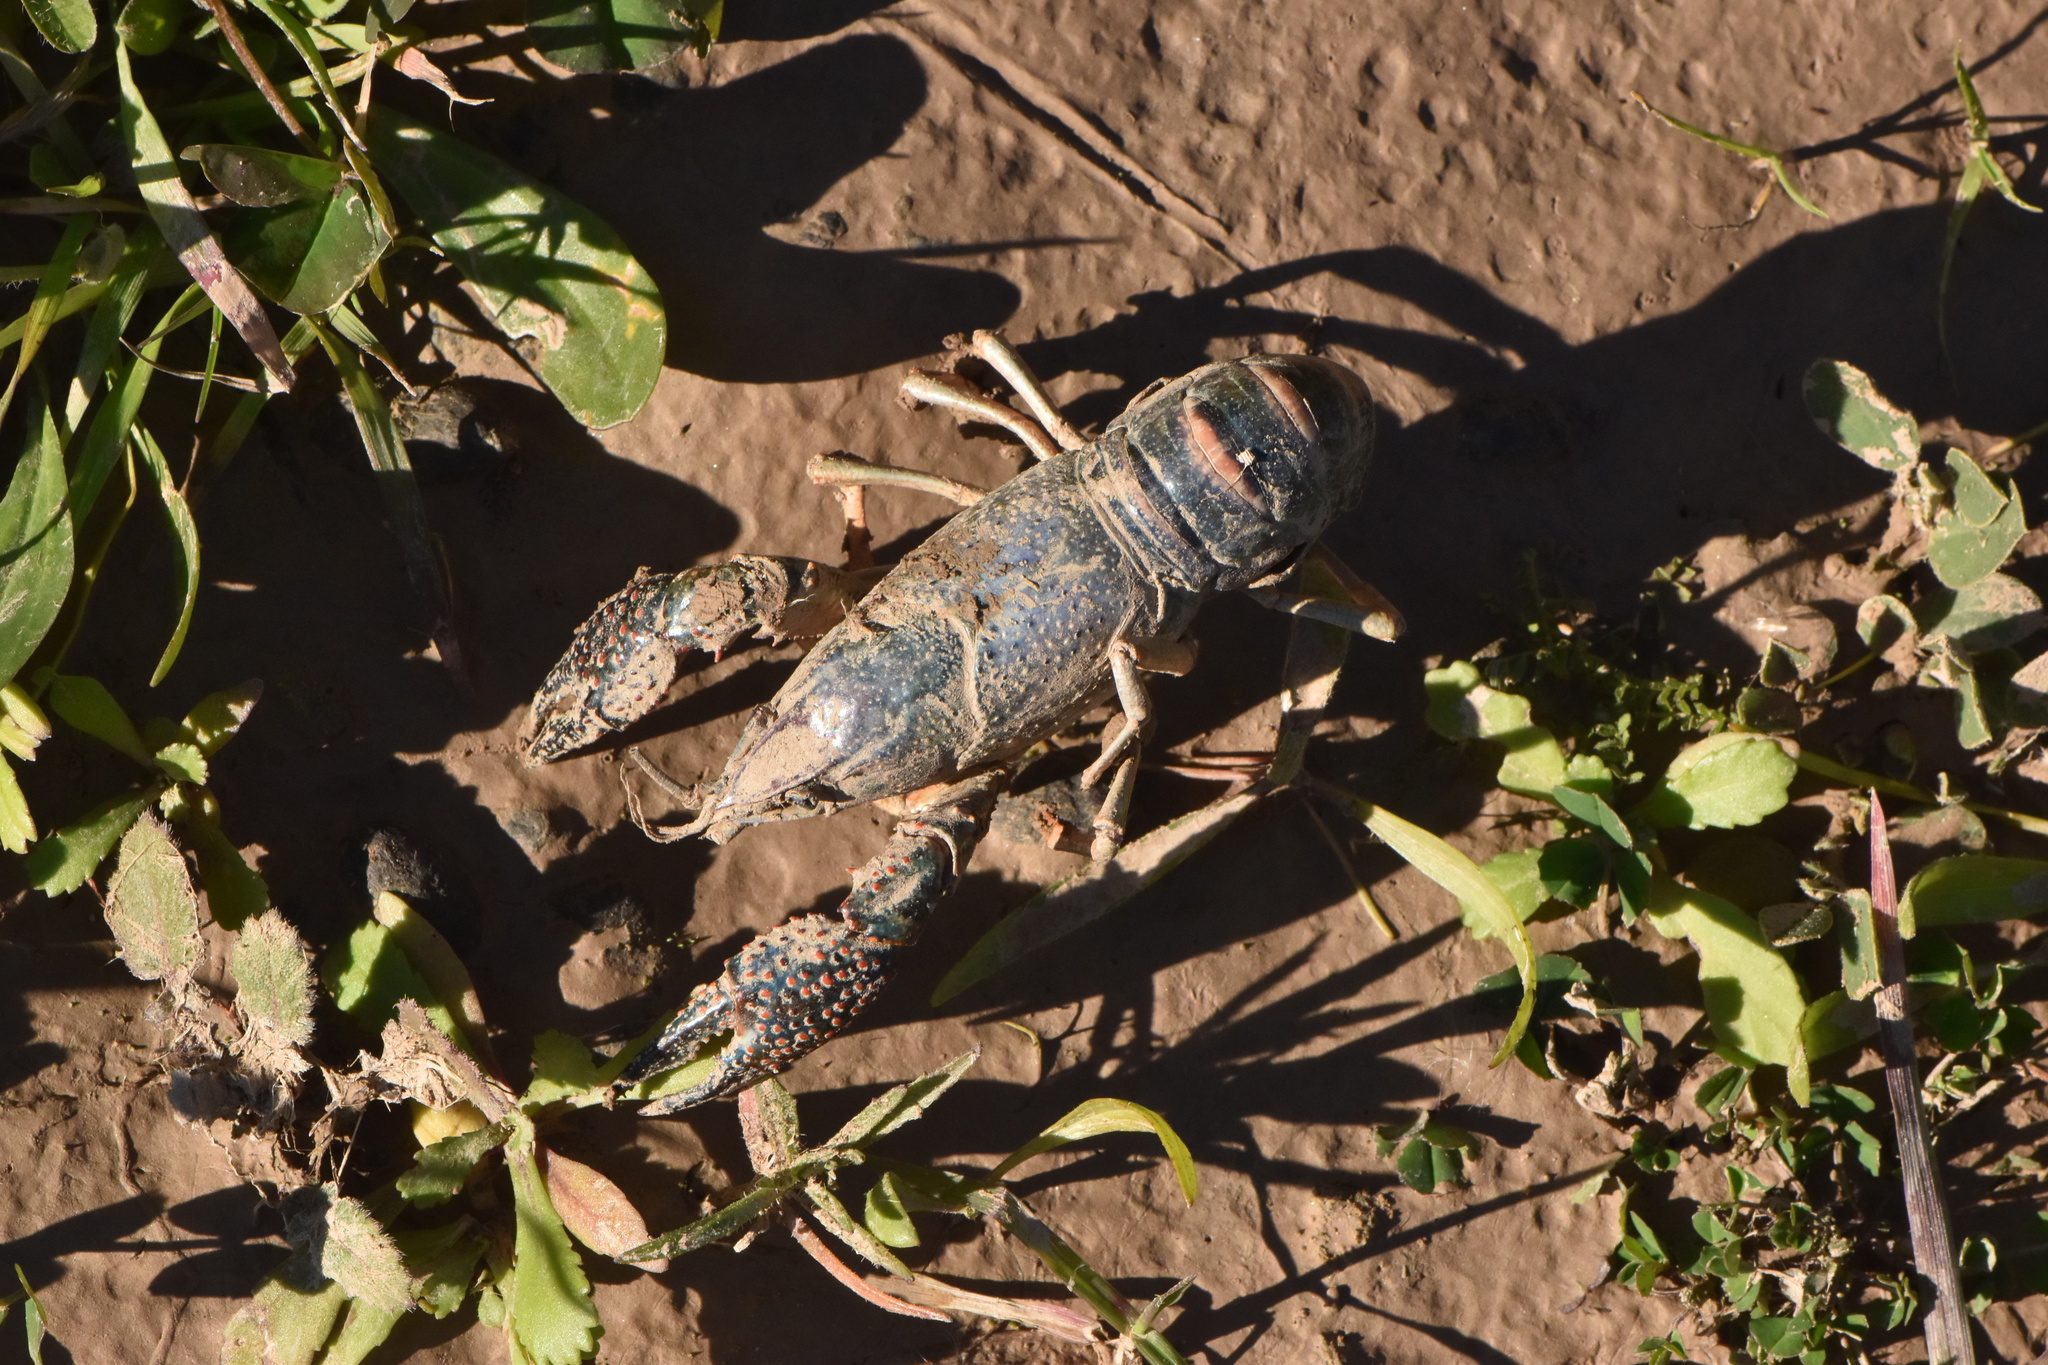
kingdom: Animalia
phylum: Arthropoda
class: Malacostraca
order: Decapoda
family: Cambaridae
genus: Procambarus
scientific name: Procambarus clarkii
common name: Red swamp crayfish
